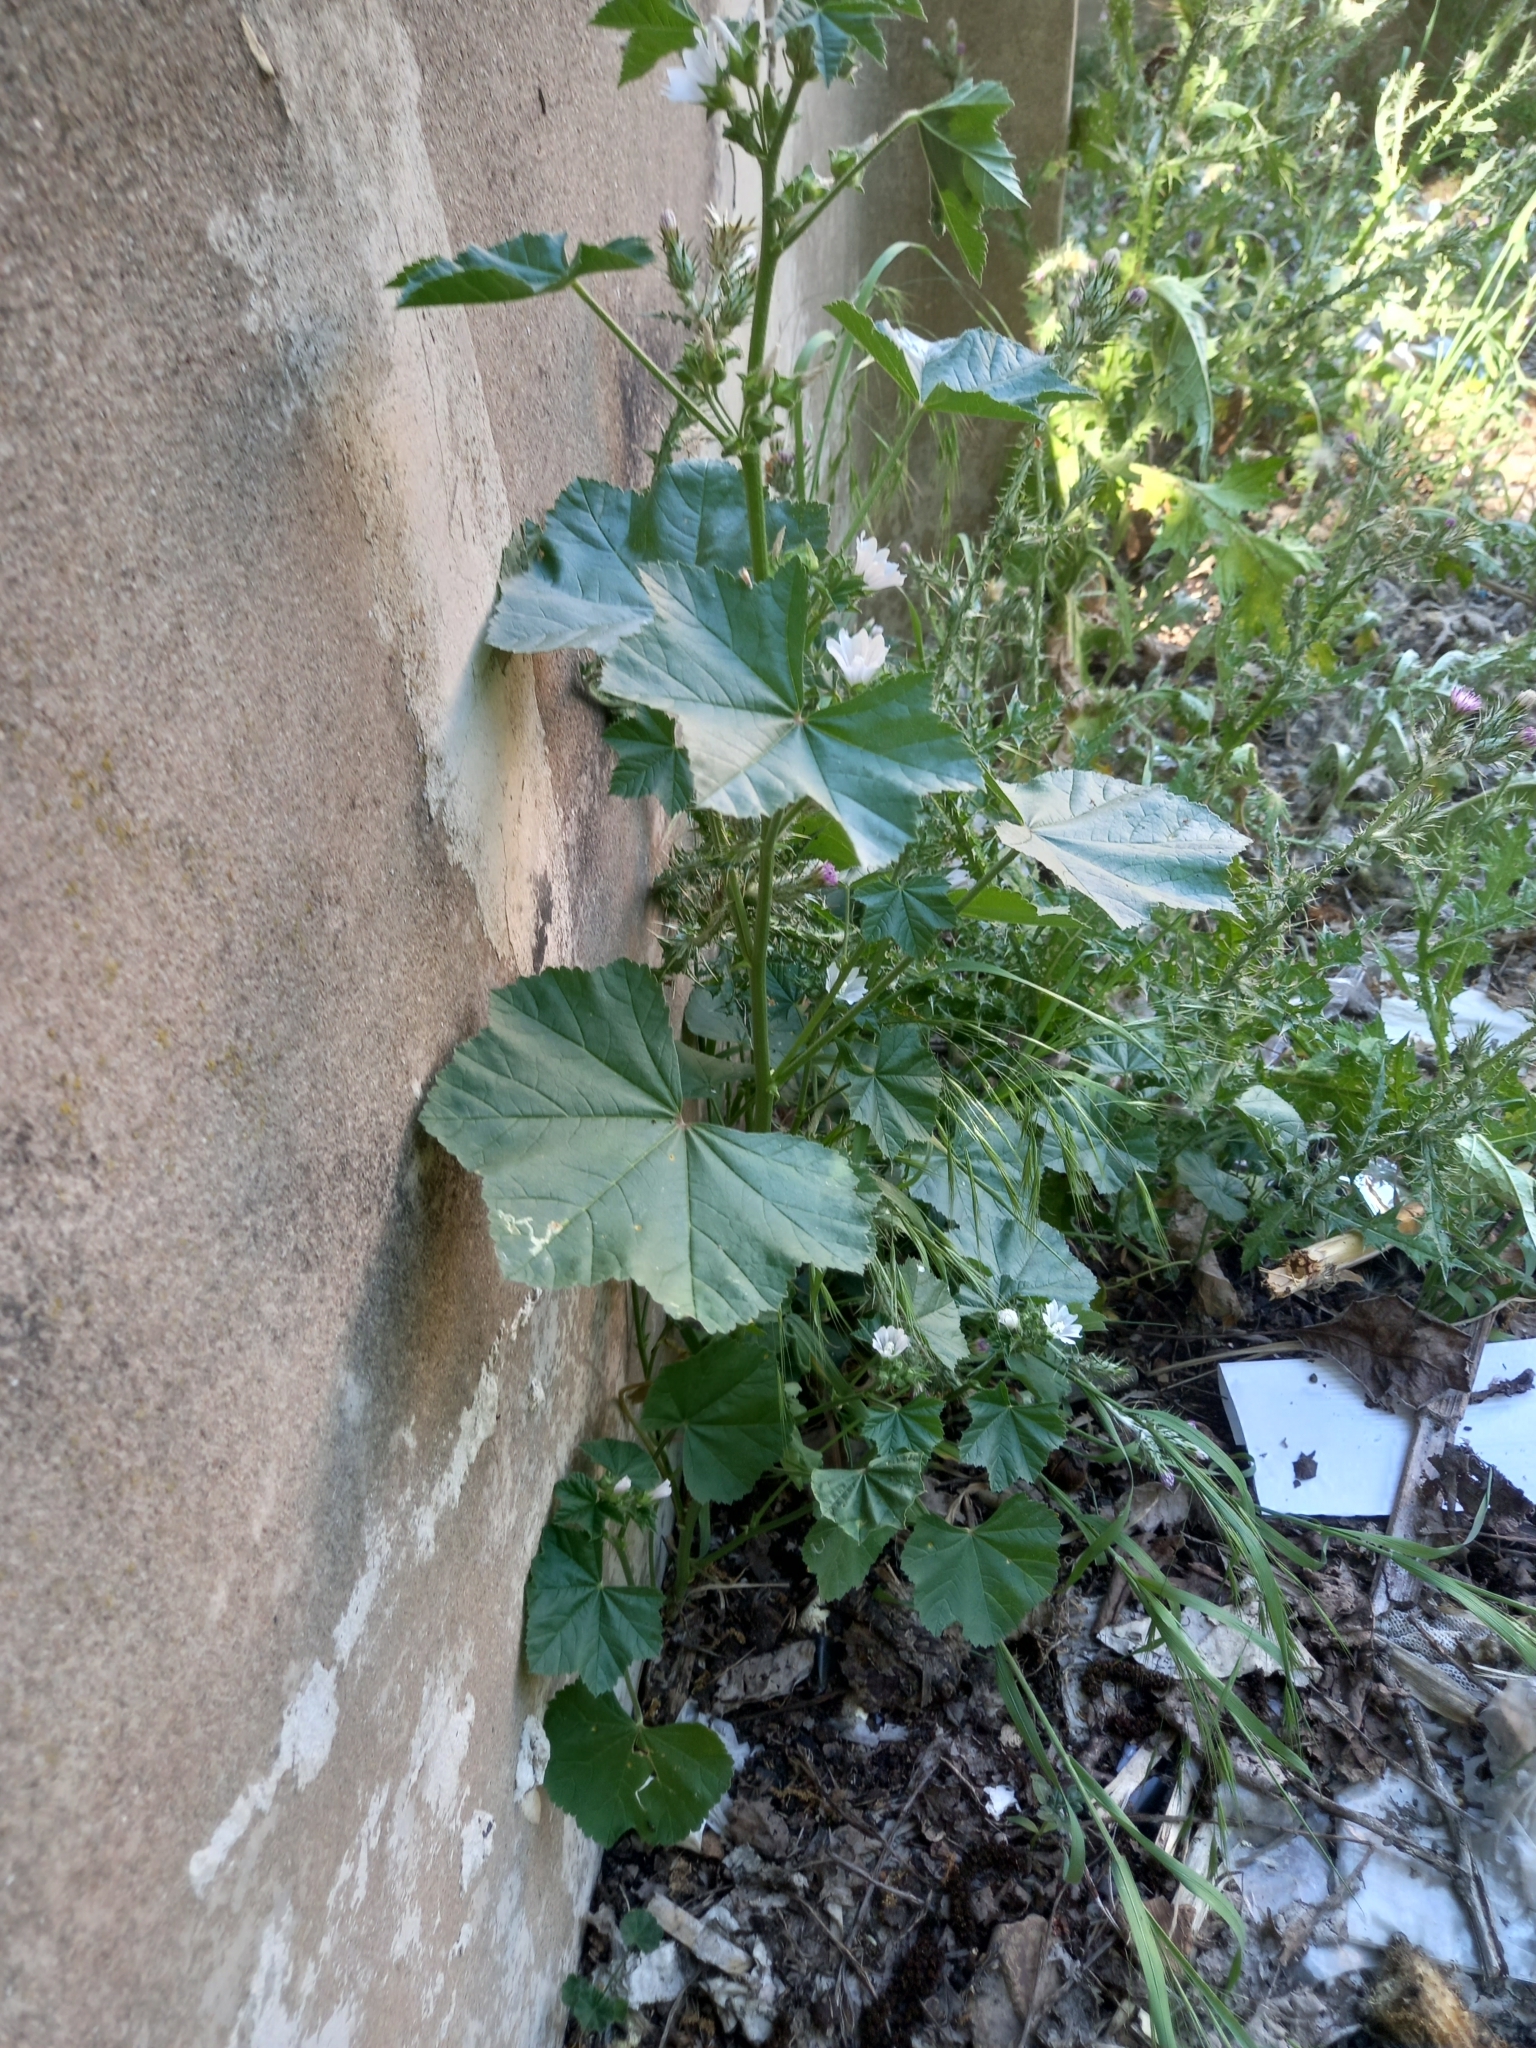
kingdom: Plantae
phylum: Tracheophyta
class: Magnoliopsida
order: Malvales
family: Malvaceae
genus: Malva
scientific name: Malva neglecta
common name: Common mallow
